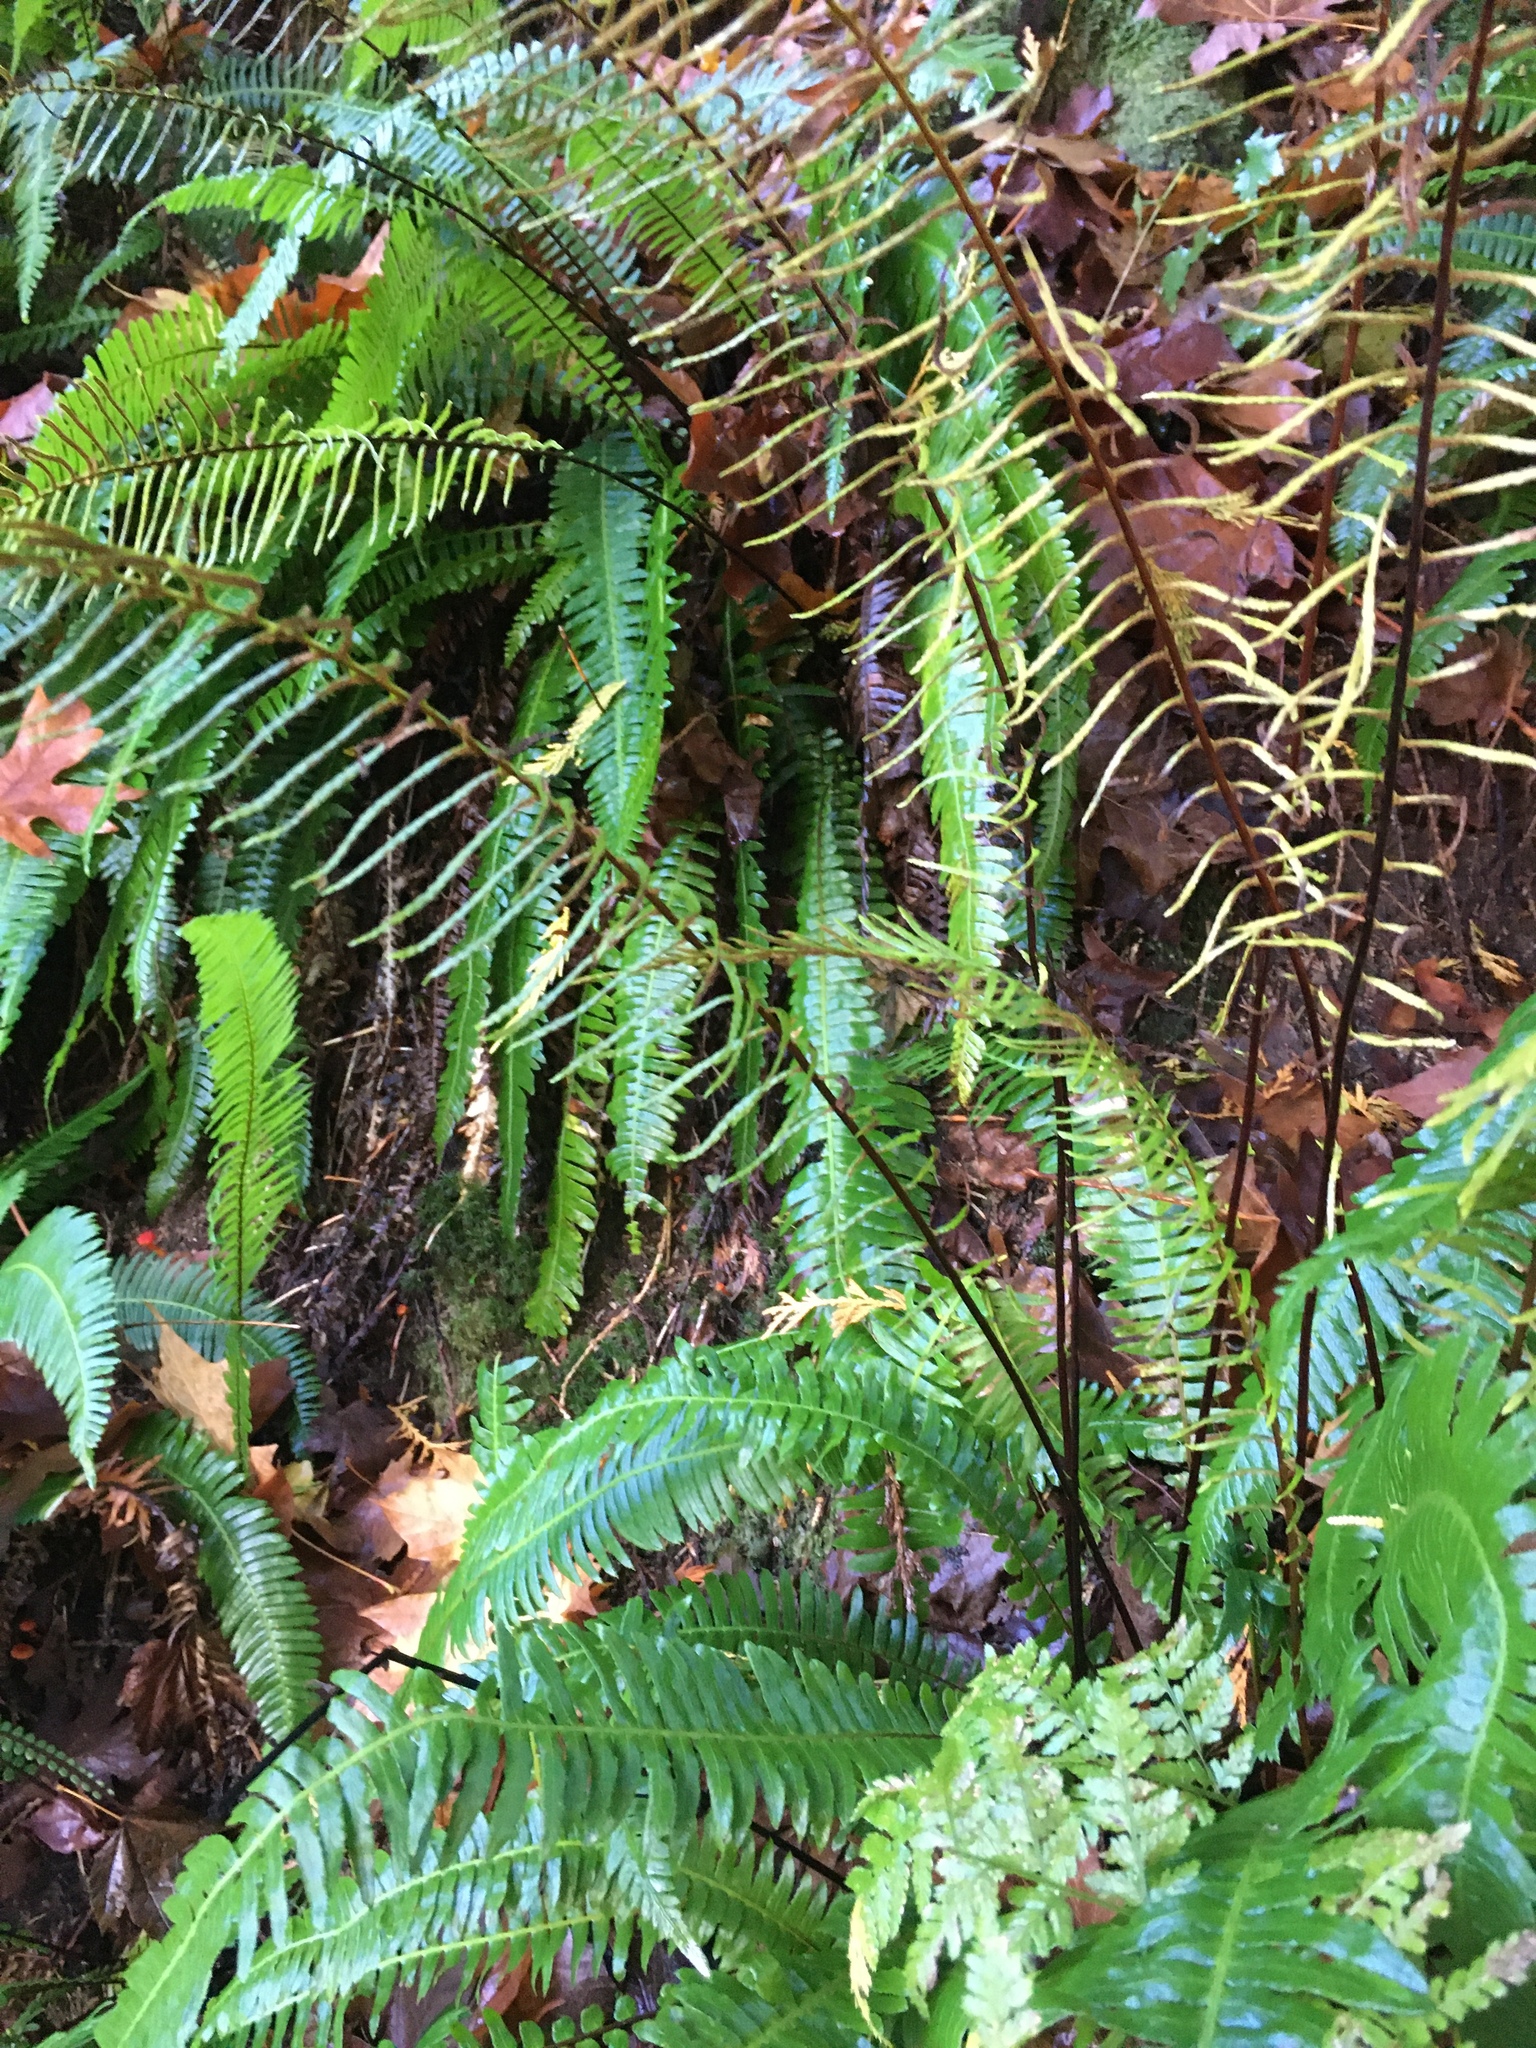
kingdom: Plantae
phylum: Tracheophyta
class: Polypodiopsida
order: Polypodiales
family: Blechnaceae
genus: Struthiopteris
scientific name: Struthiopteris spicant
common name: Deer fern
